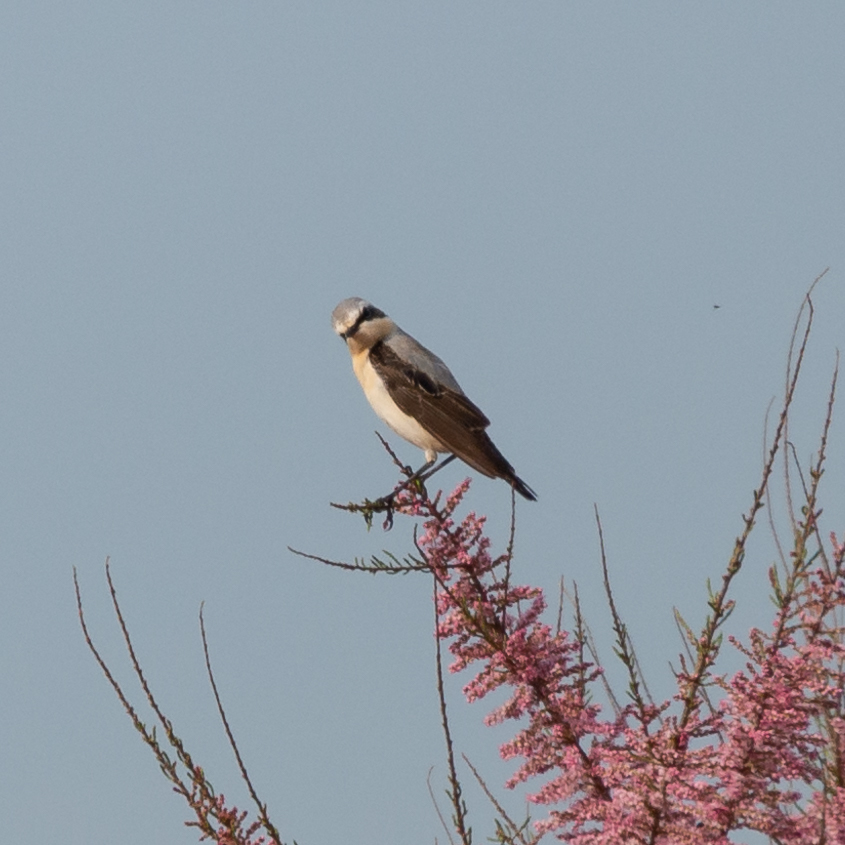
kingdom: Animalia
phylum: Chordata
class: Aves
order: Passeriformes
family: Muscicapidae
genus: Oenanthe
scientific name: Oenanthe oenanthe
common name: Northern wheatear
